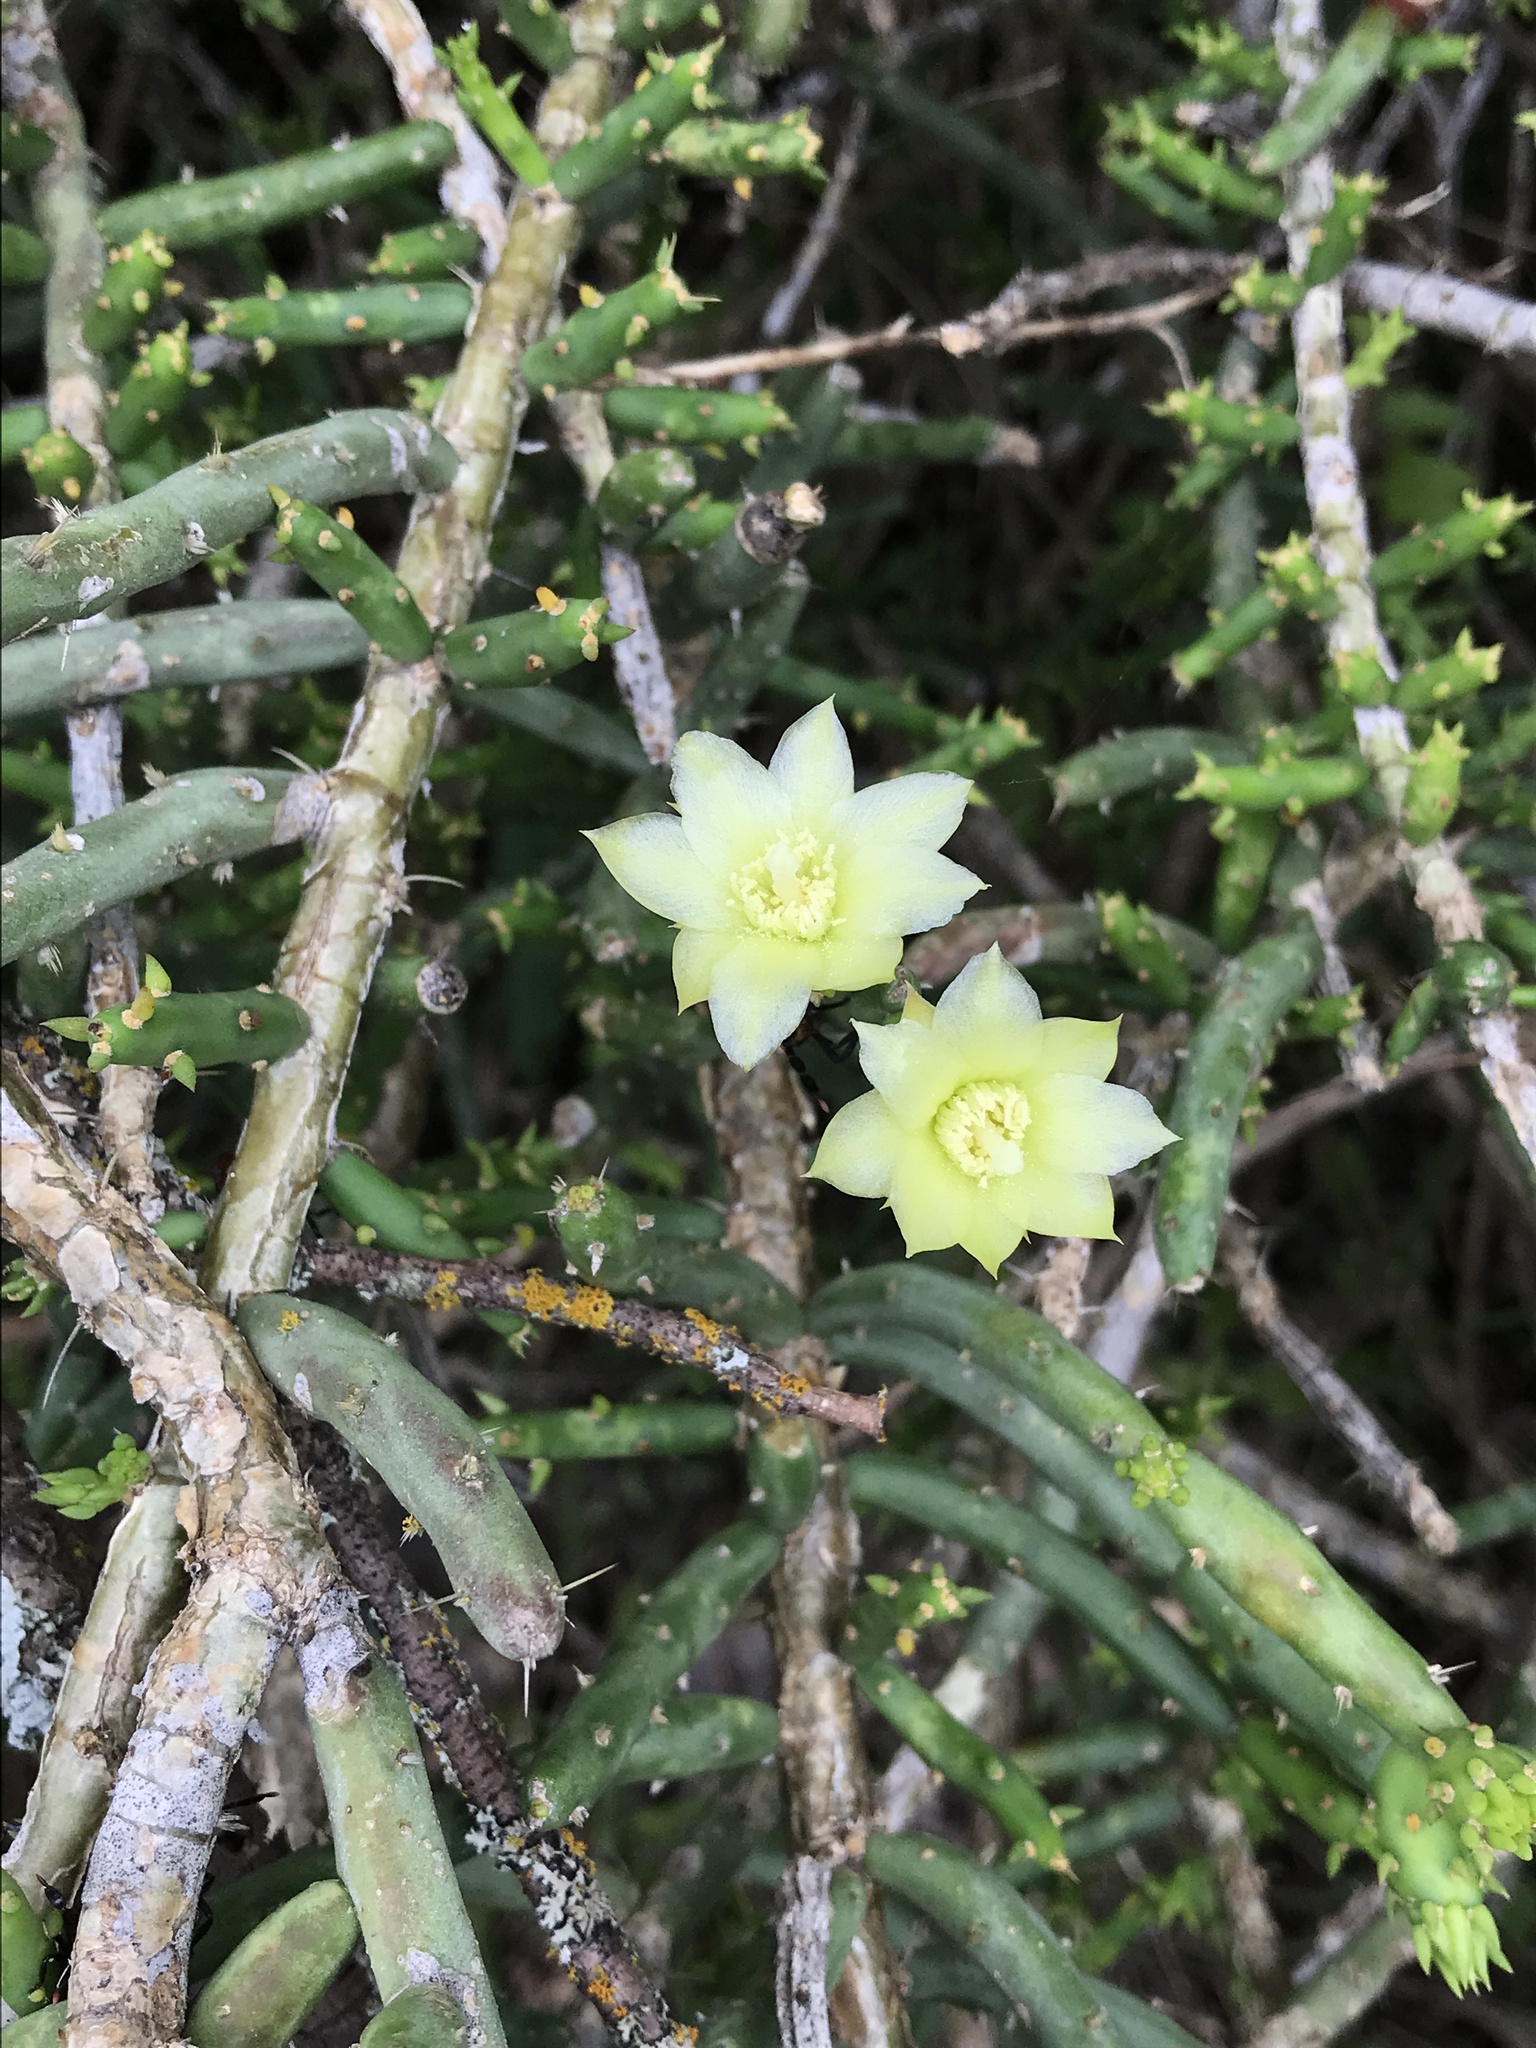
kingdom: Plantae
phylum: Tracheophyta
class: Magnoliopsida
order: Caryophyllales
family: Cactaceae
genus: Cylindropuntia
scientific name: Cylindropuntia leptocaulis
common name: Christmas cactus
